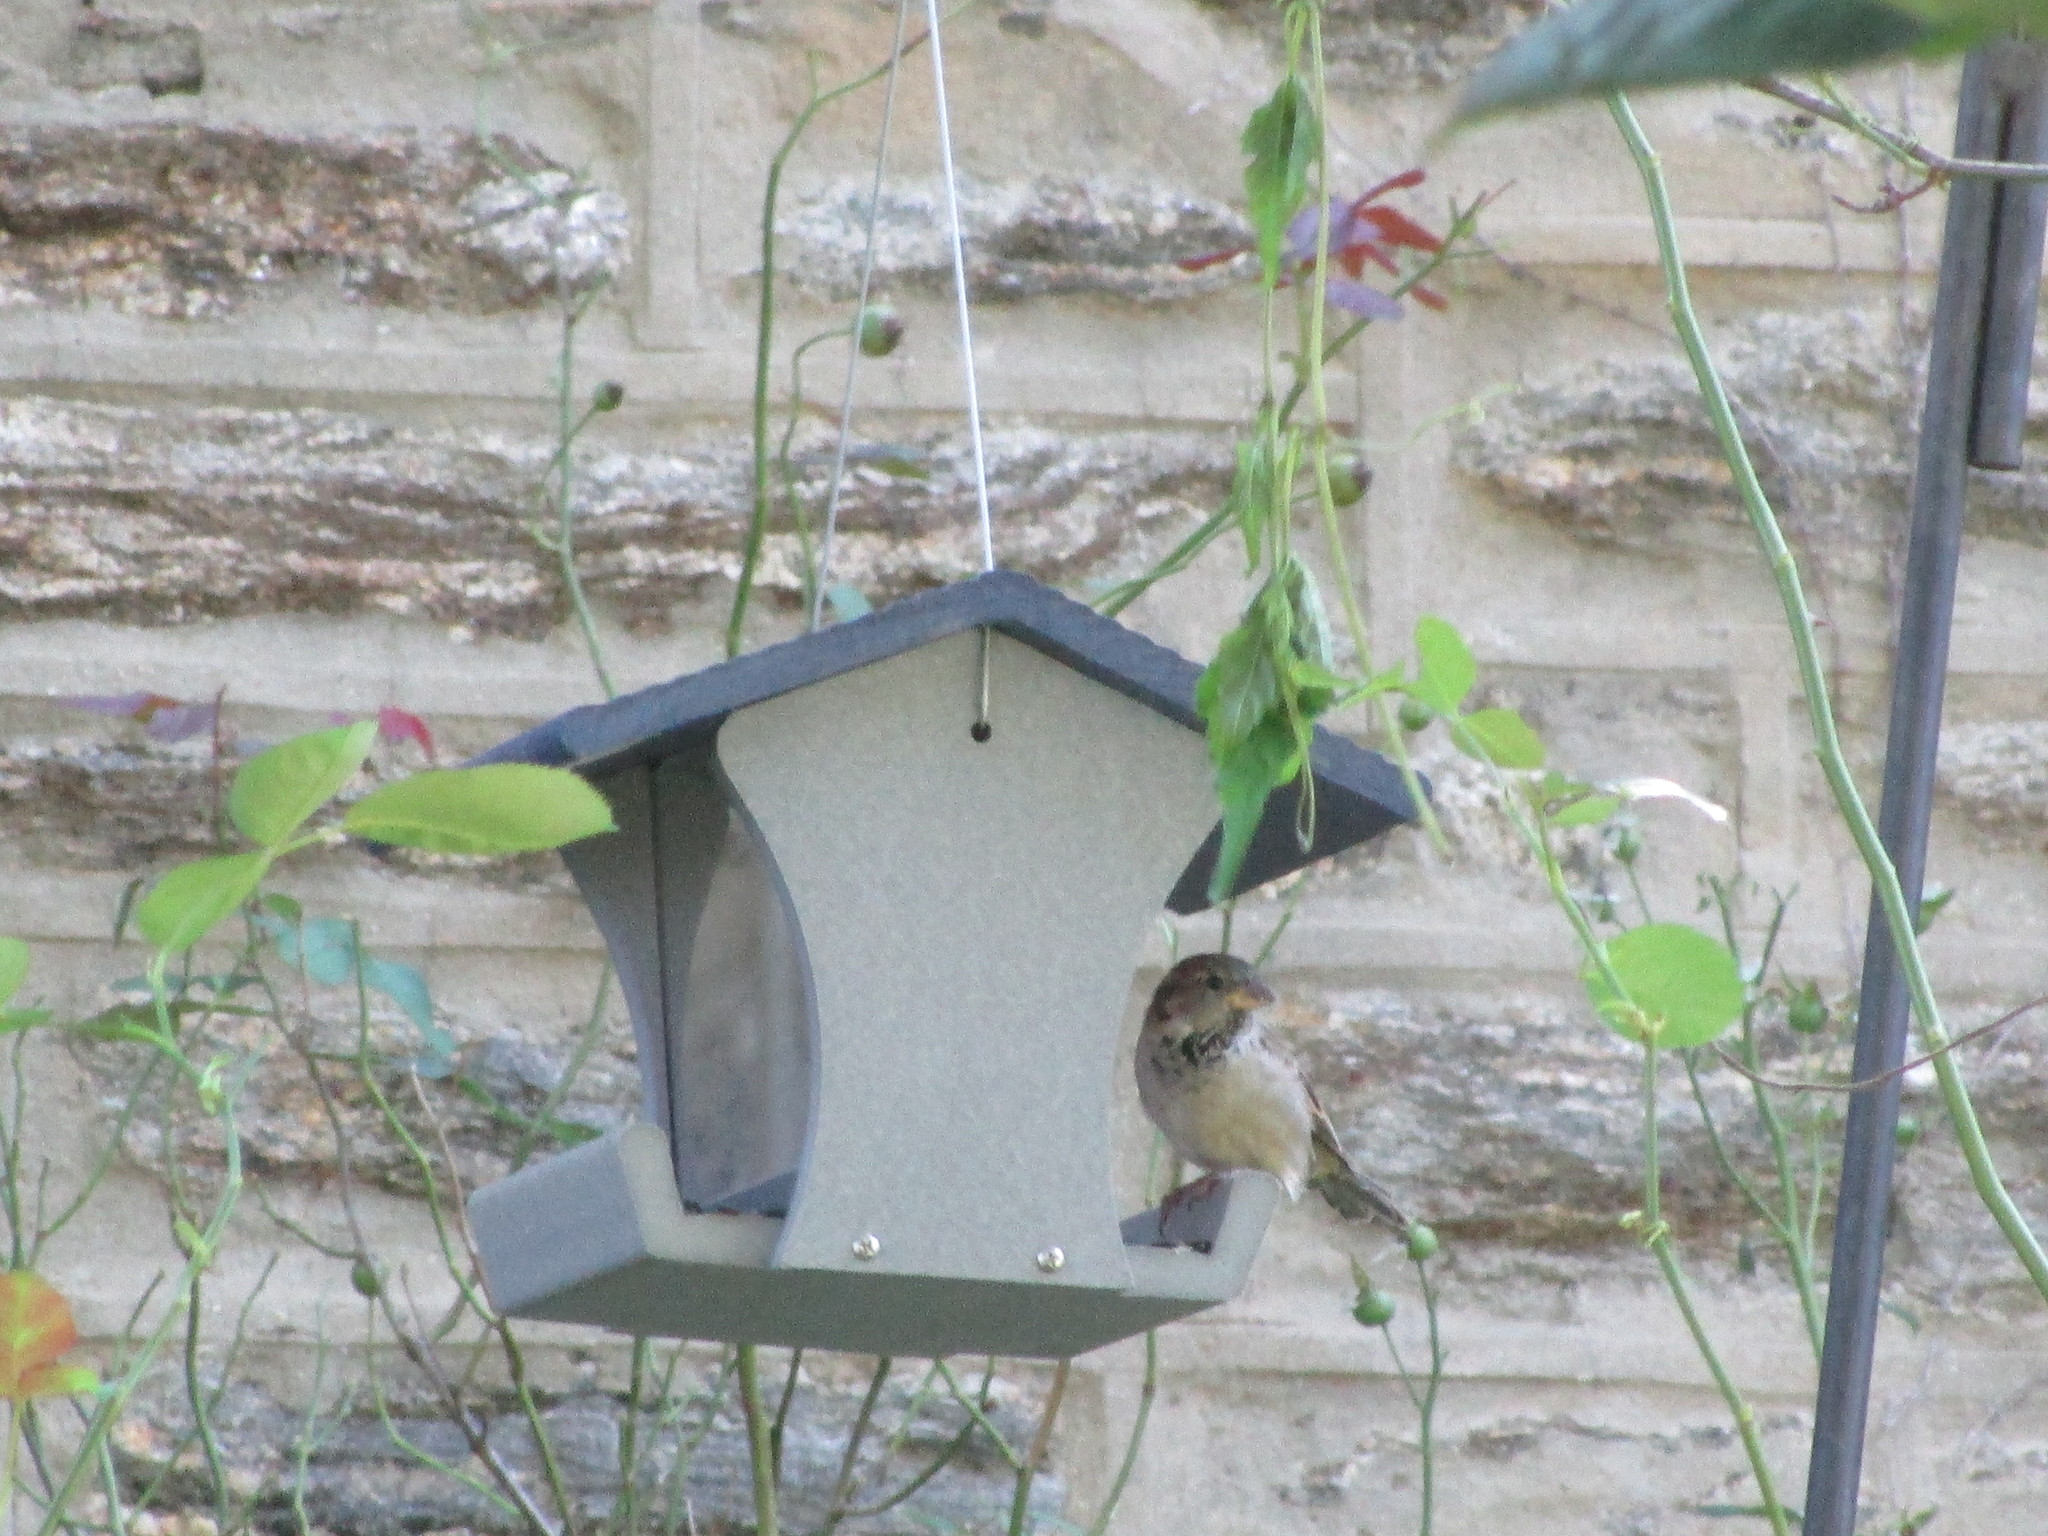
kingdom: Animalia
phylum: Chordata
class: Aves
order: Passeriformes
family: Passeridae
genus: Passer
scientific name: Passer domesticus
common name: House sparrow
